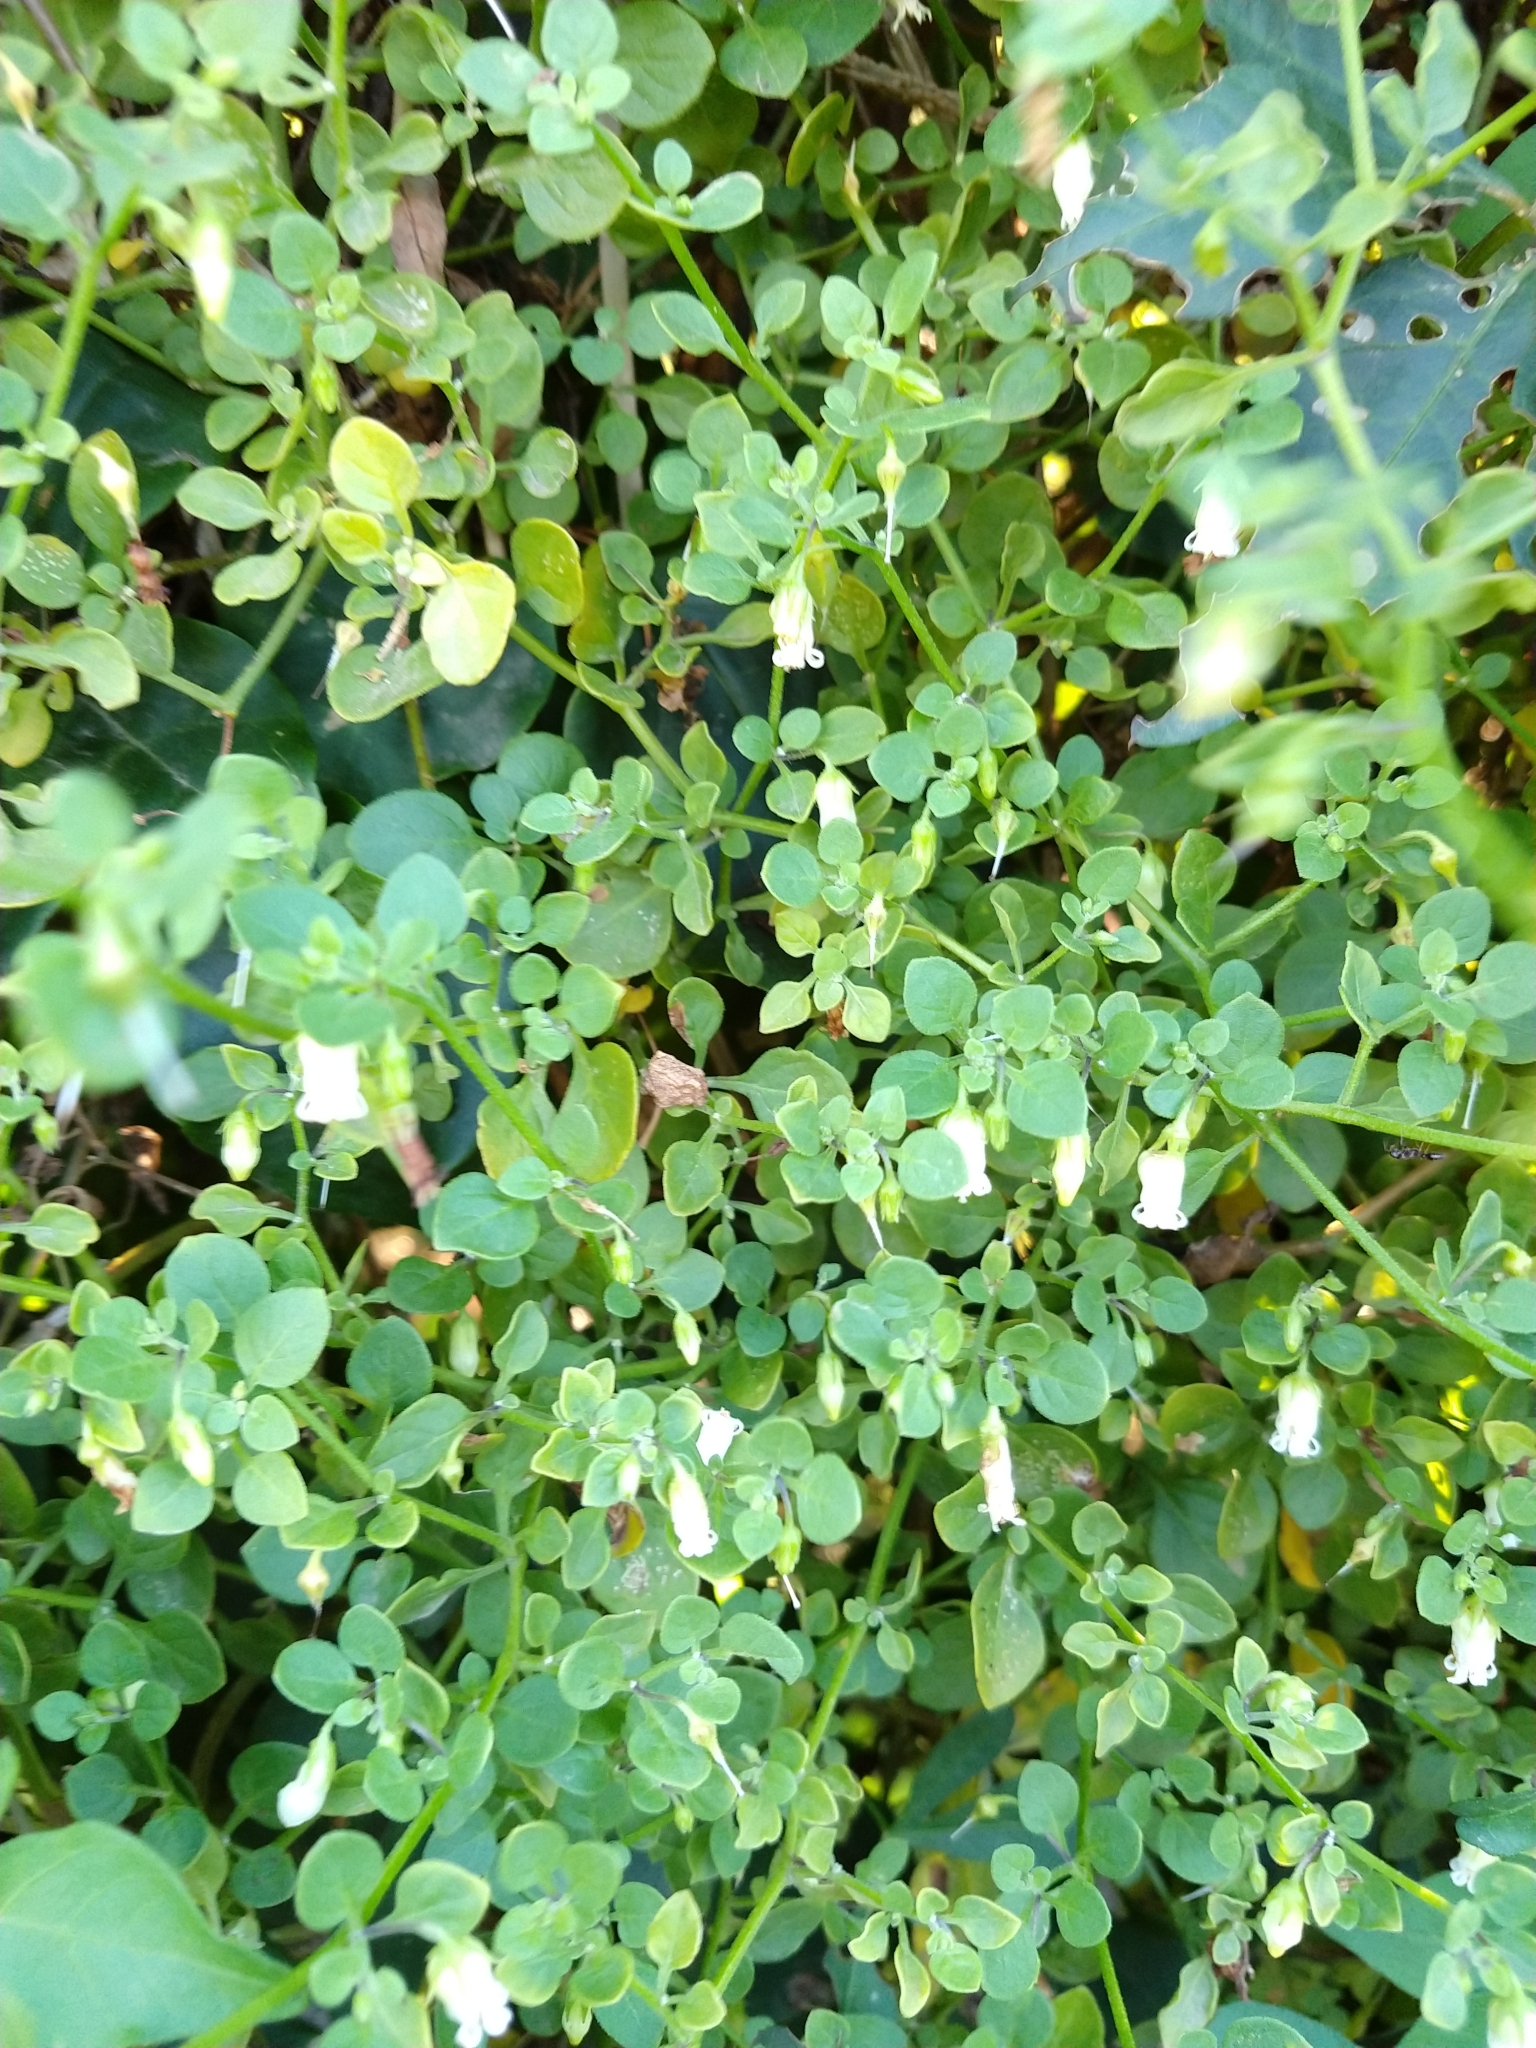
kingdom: Plantae
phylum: Tracheophyta
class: Magnoliopsida
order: Solanales
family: Solanaceae
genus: Salpichroa
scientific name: Salpichroa origanifolia
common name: Lily-of-the-valley-vine
